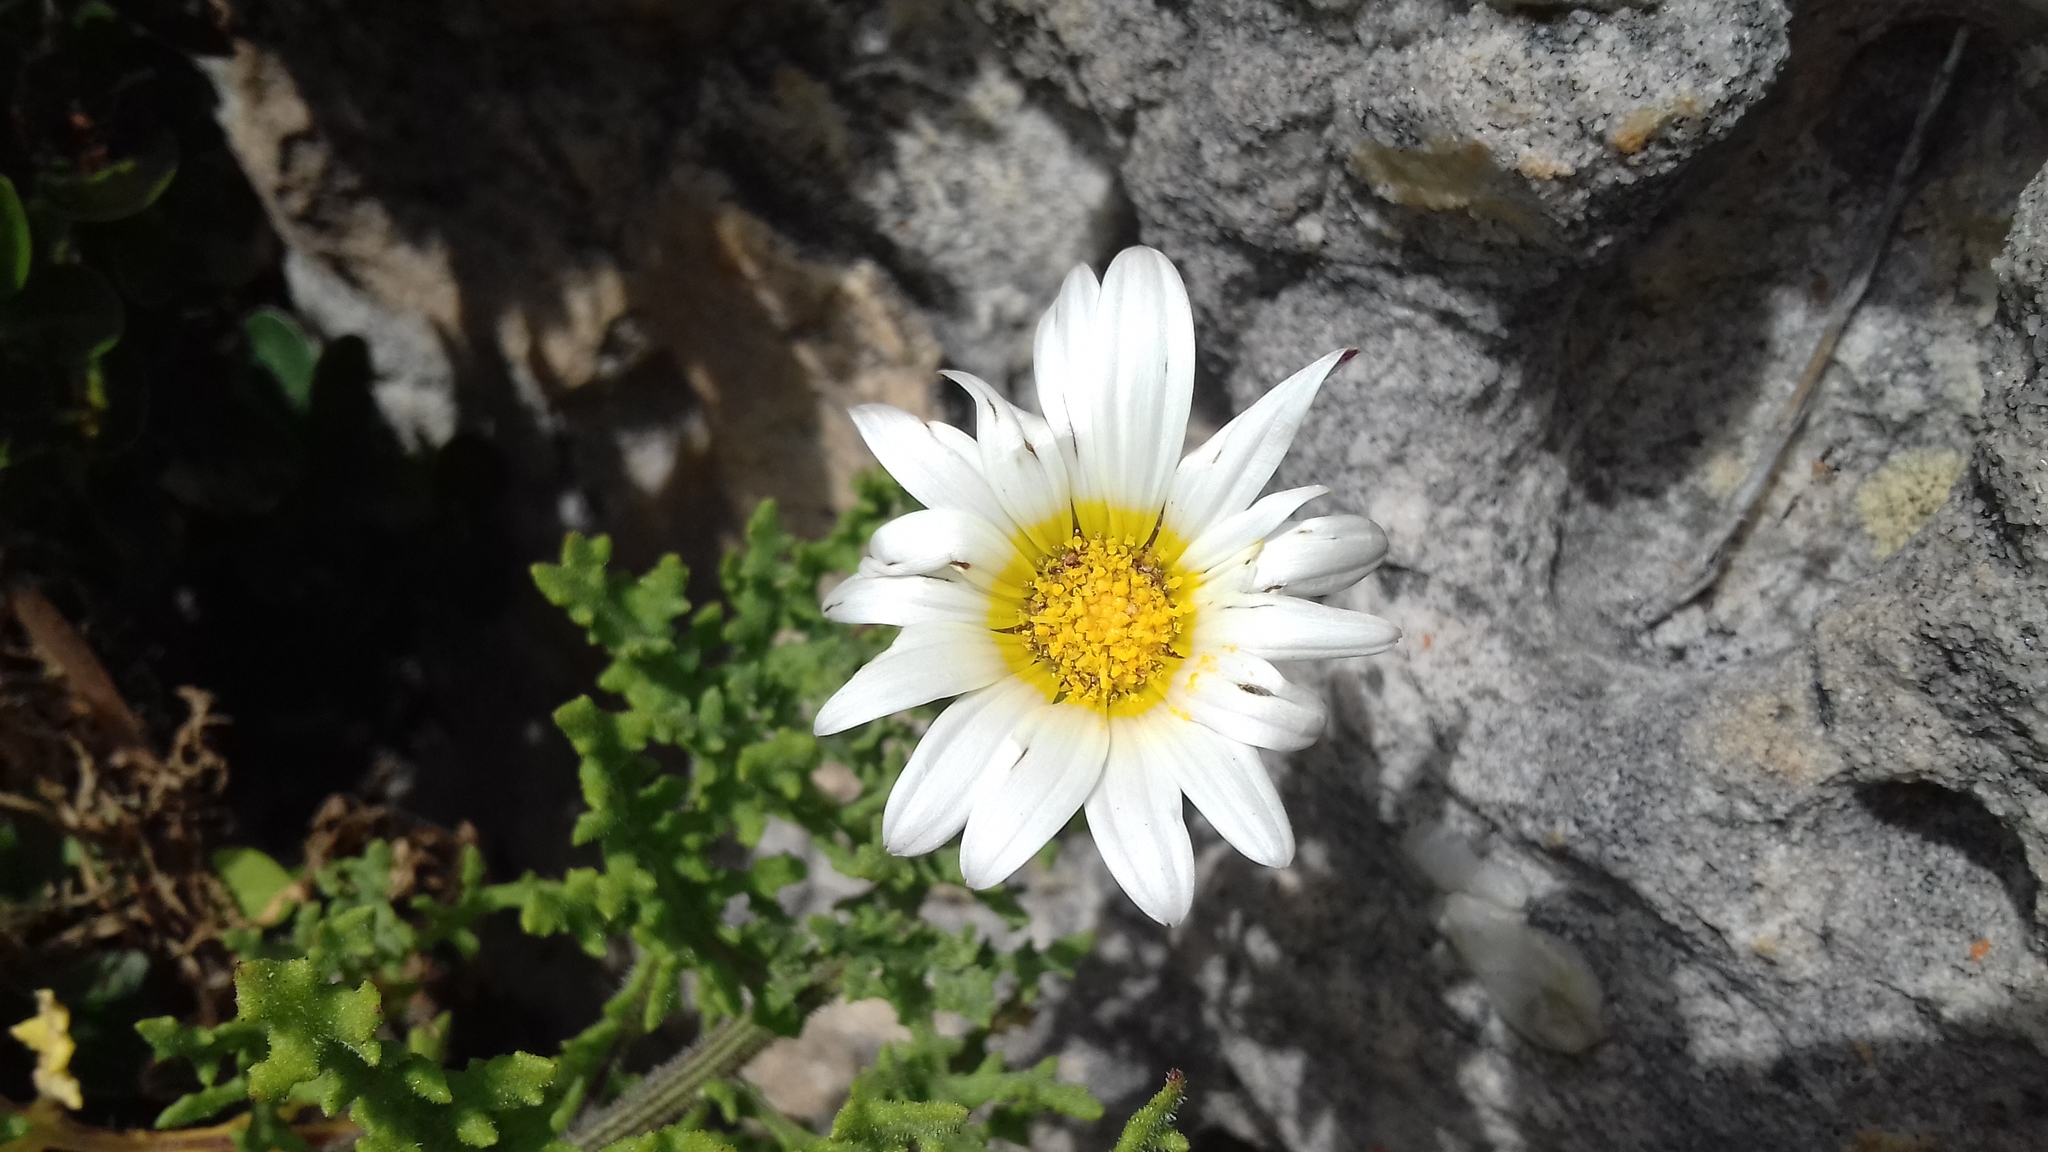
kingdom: Plantae
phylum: Tracheophyta
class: Magnoliopsida
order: Asterales
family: Asteraceae
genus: Arctotis
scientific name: Arctotis aspera
